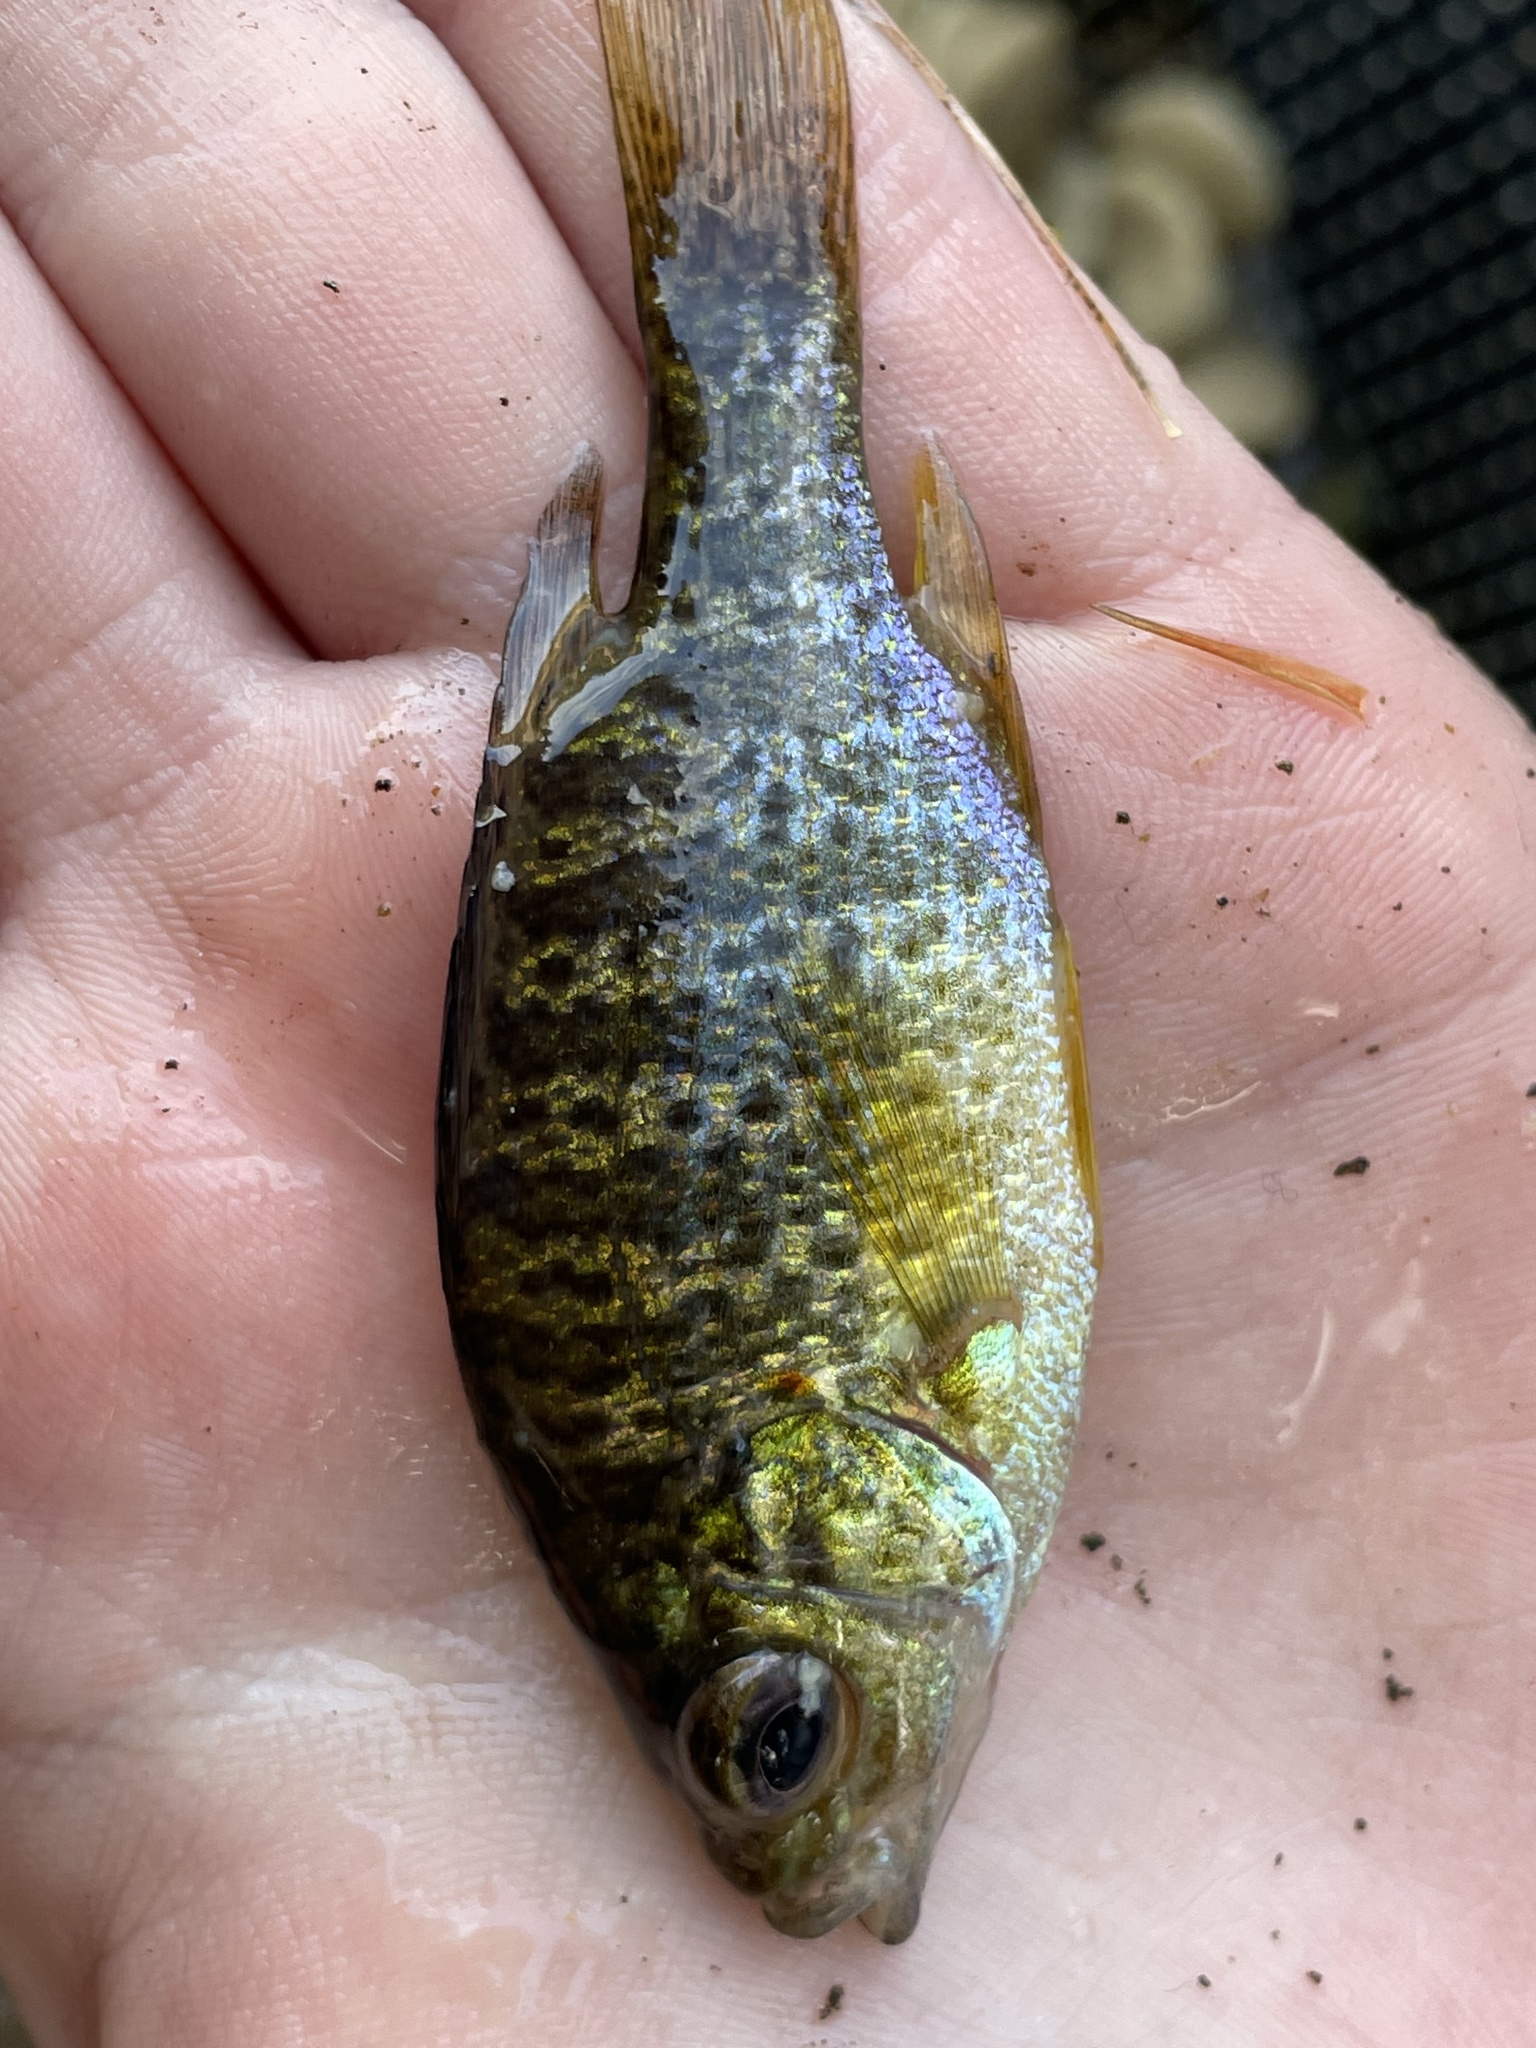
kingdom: Animalia
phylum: Chordata
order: Perciformes
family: Centrarchidae
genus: Lepomis
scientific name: Lepomis gibbosus
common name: Pumpkinseed
